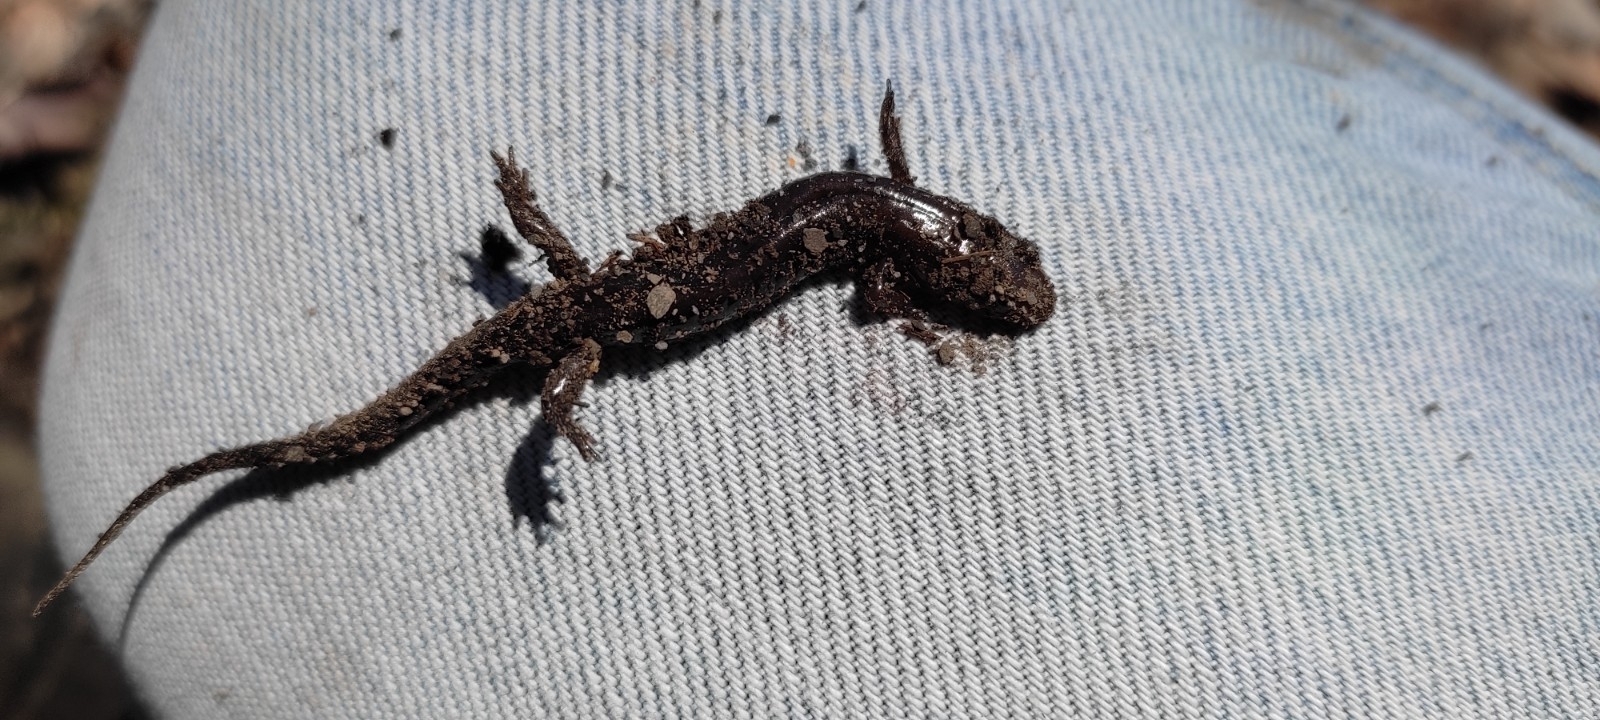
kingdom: Animalia
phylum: Chordata
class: Amphibia
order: Caudata
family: Plethodontidae
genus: Desmognathus
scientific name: Desmognathus ochrophaeus
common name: Allegheny mountain dusky salamander
